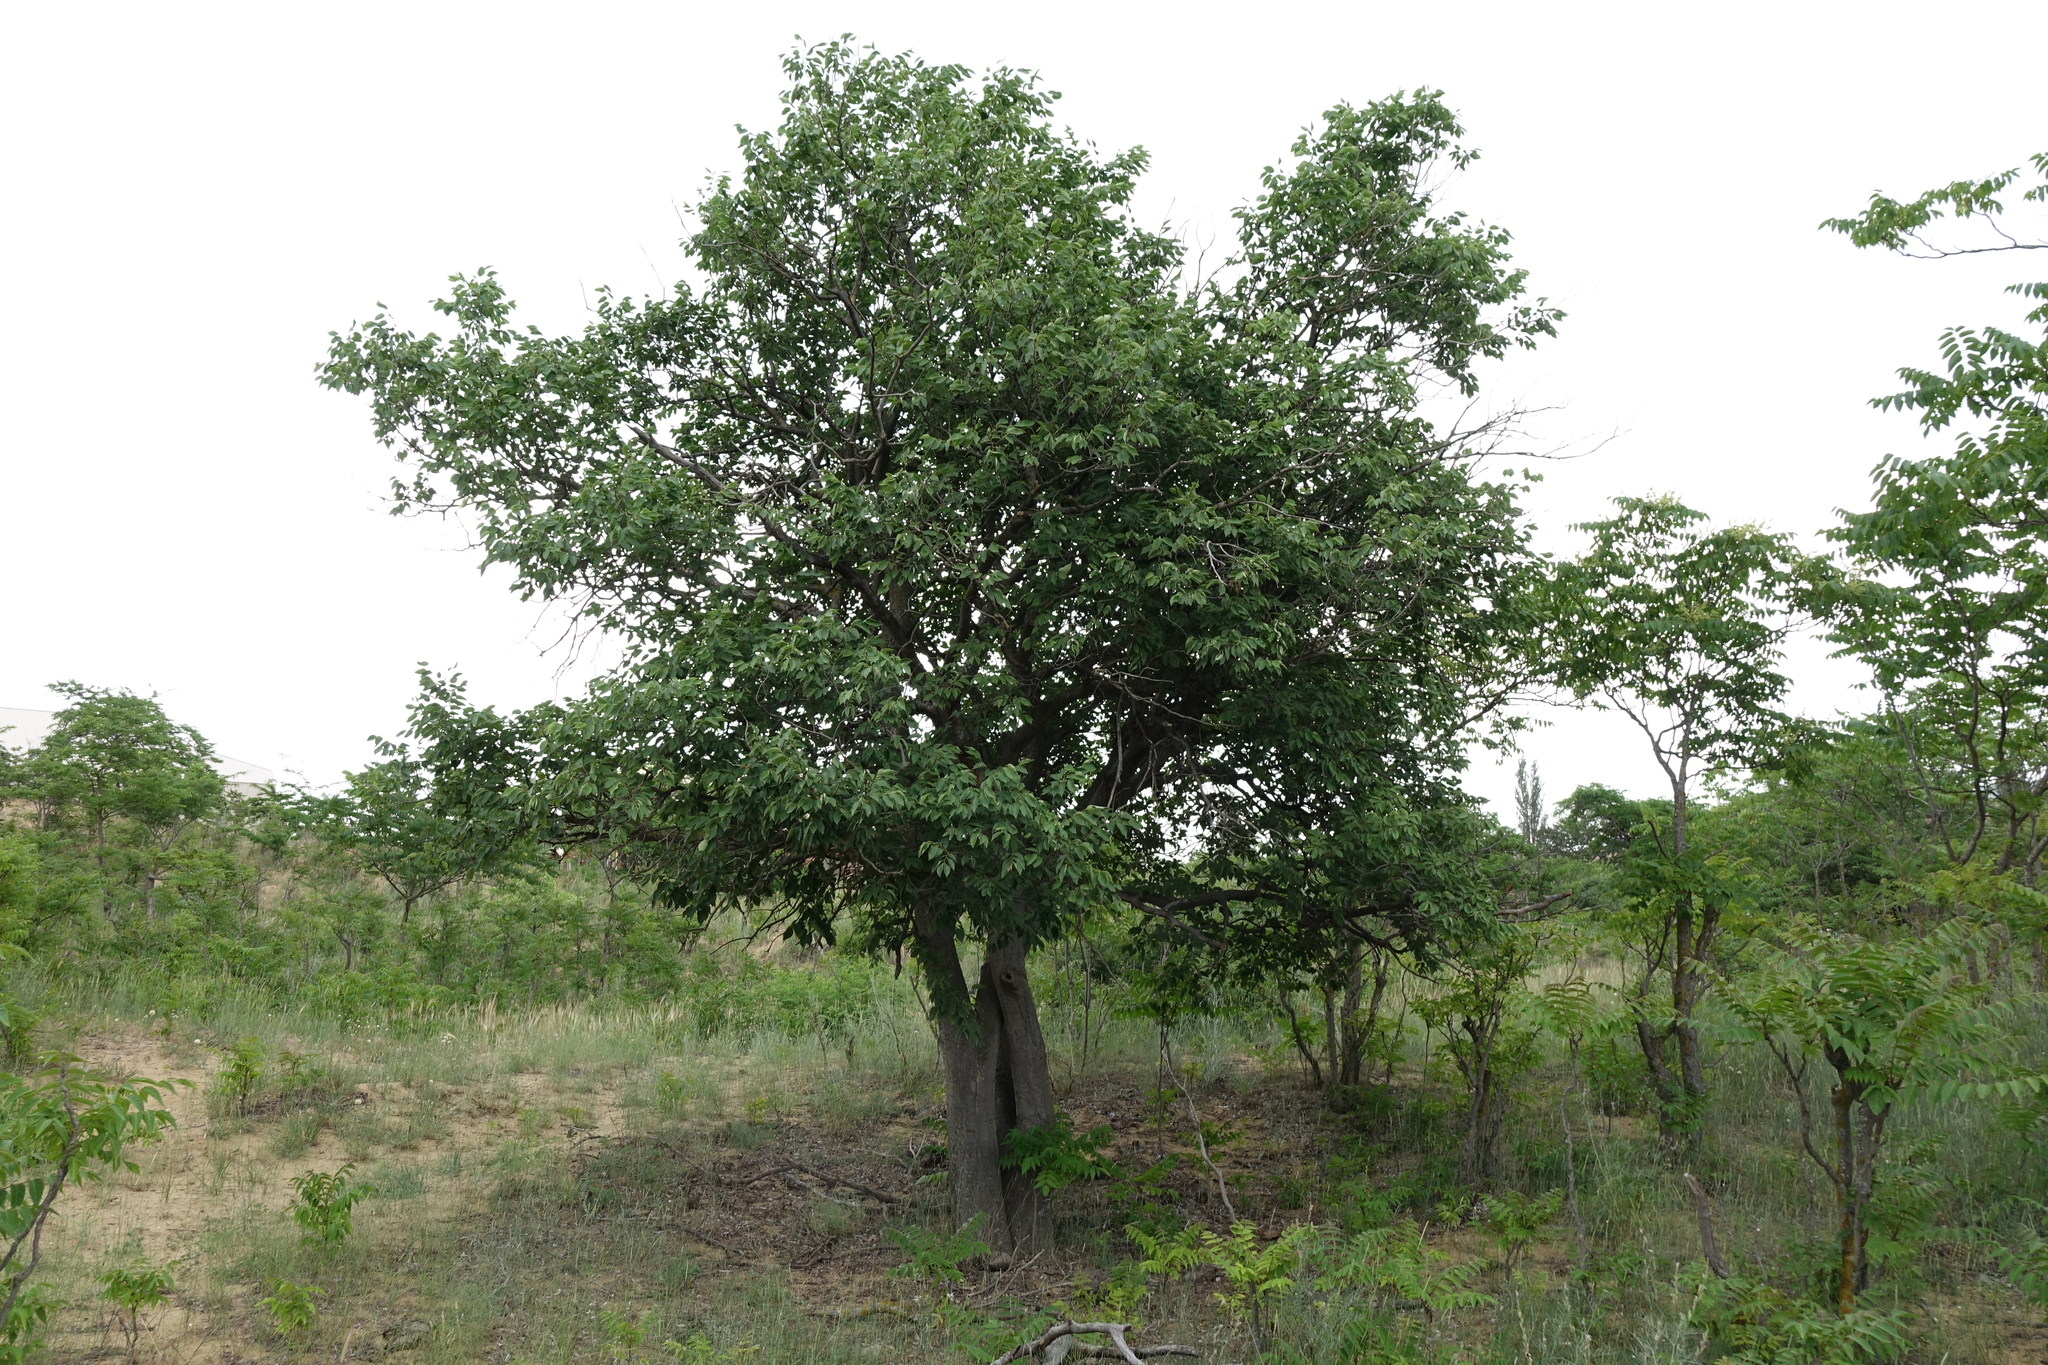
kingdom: Plantae
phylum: Tracheophyta
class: Magnoliopsida
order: Rosales
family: Cannabaceae
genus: Celtis
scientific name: Celtis glabrata
